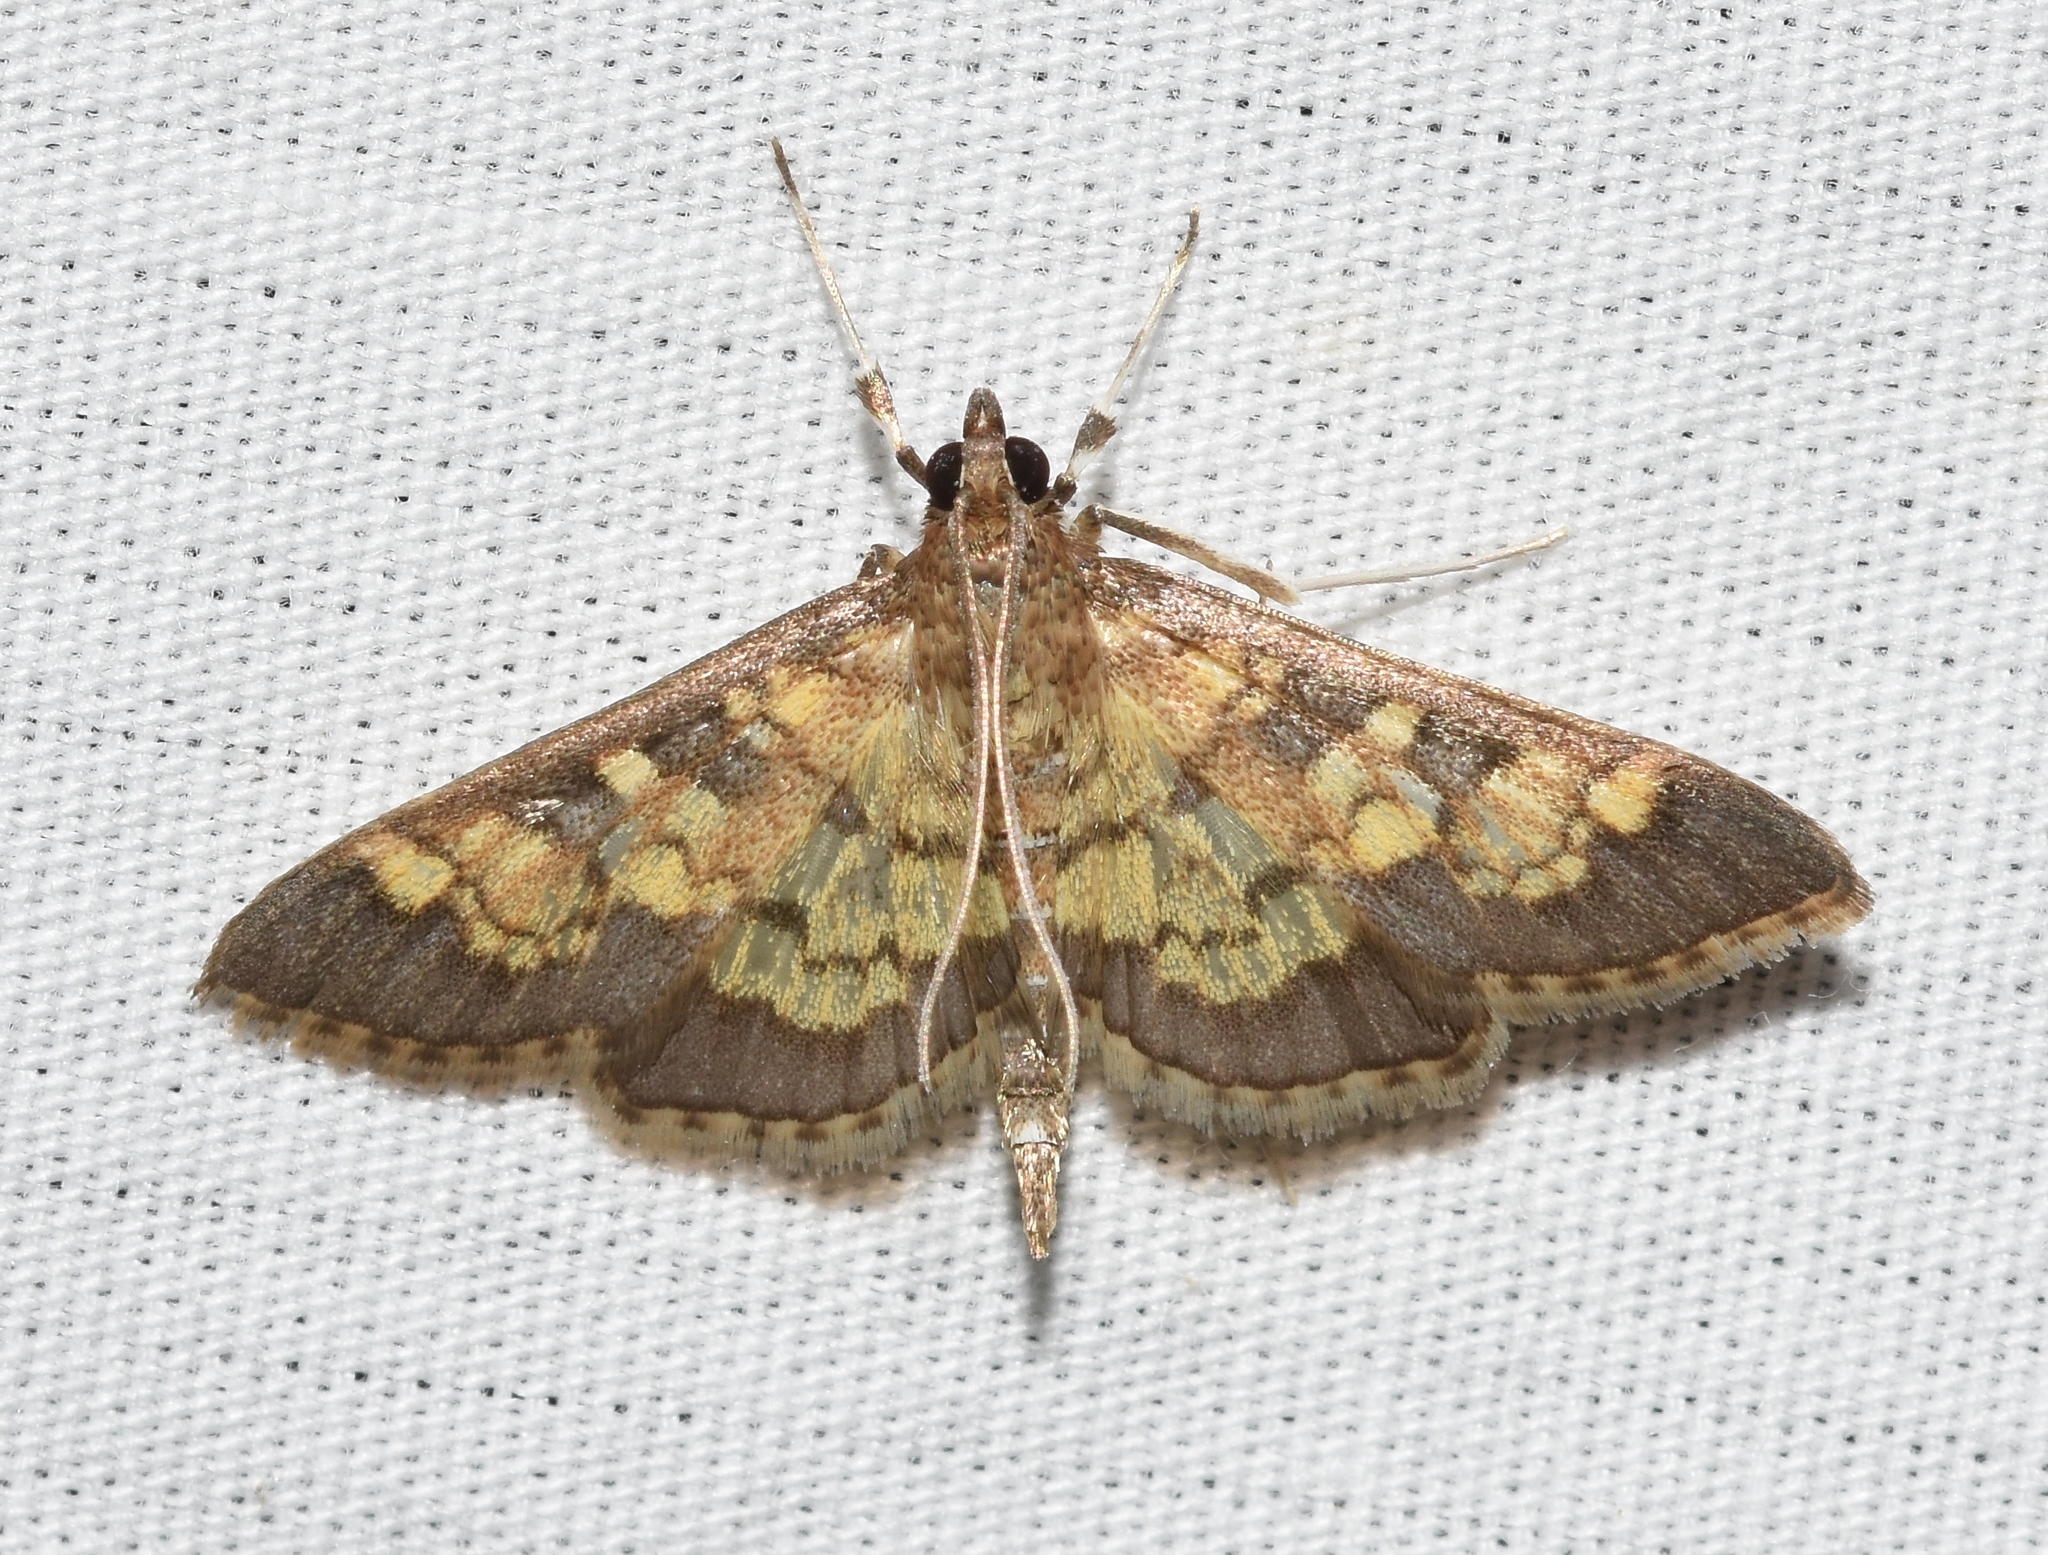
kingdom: Animalia
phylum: Arthropoda
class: Insecta
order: Lepidoptera
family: Crambidae
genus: Epipagis
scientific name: Epipagis adipaloides
